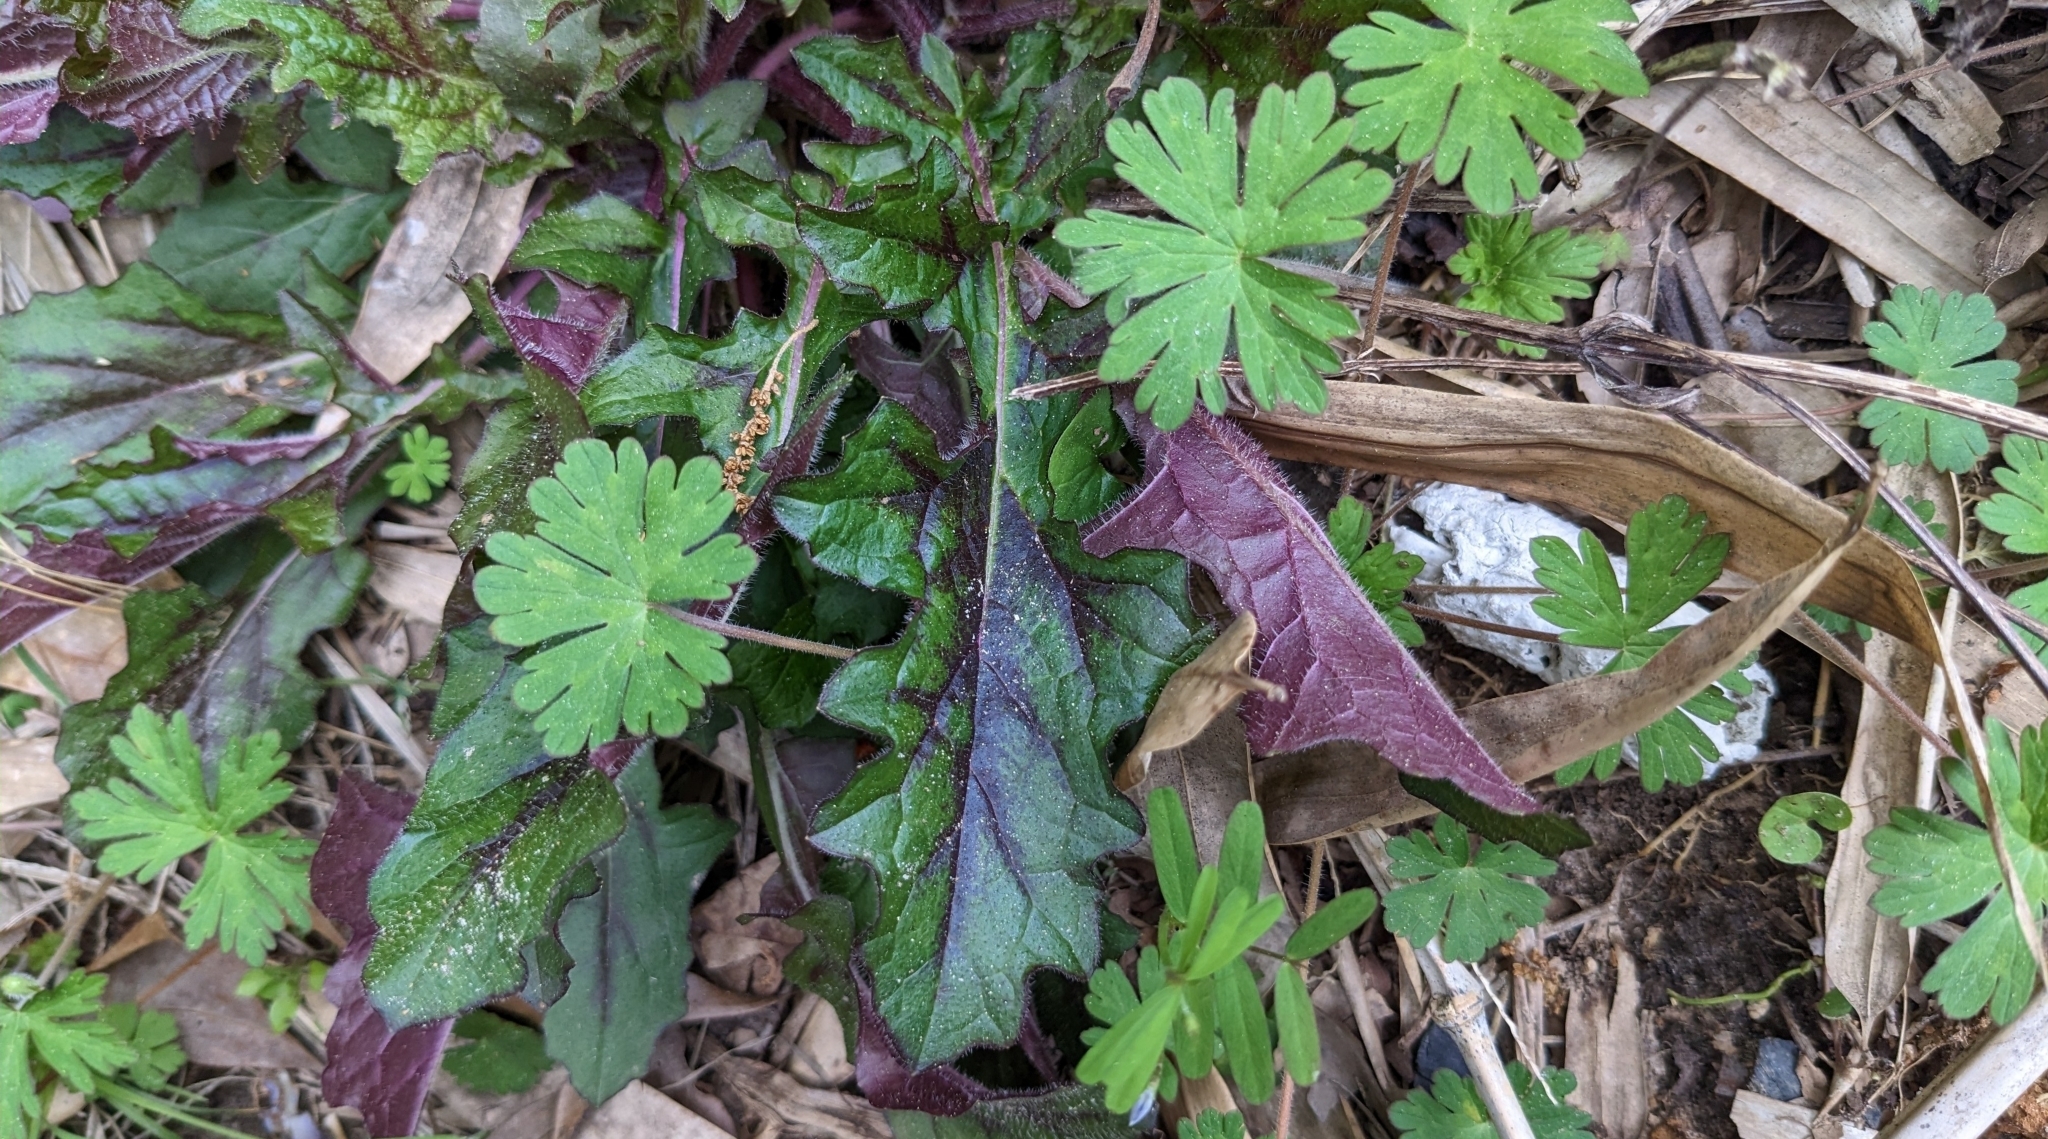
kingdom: Plantae
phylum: Tracheophyta
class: Magnoliopsida
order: Lamiales
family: Lamiaceae
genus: Salvia
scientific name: Salvia lyrata
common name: Cancerweed
